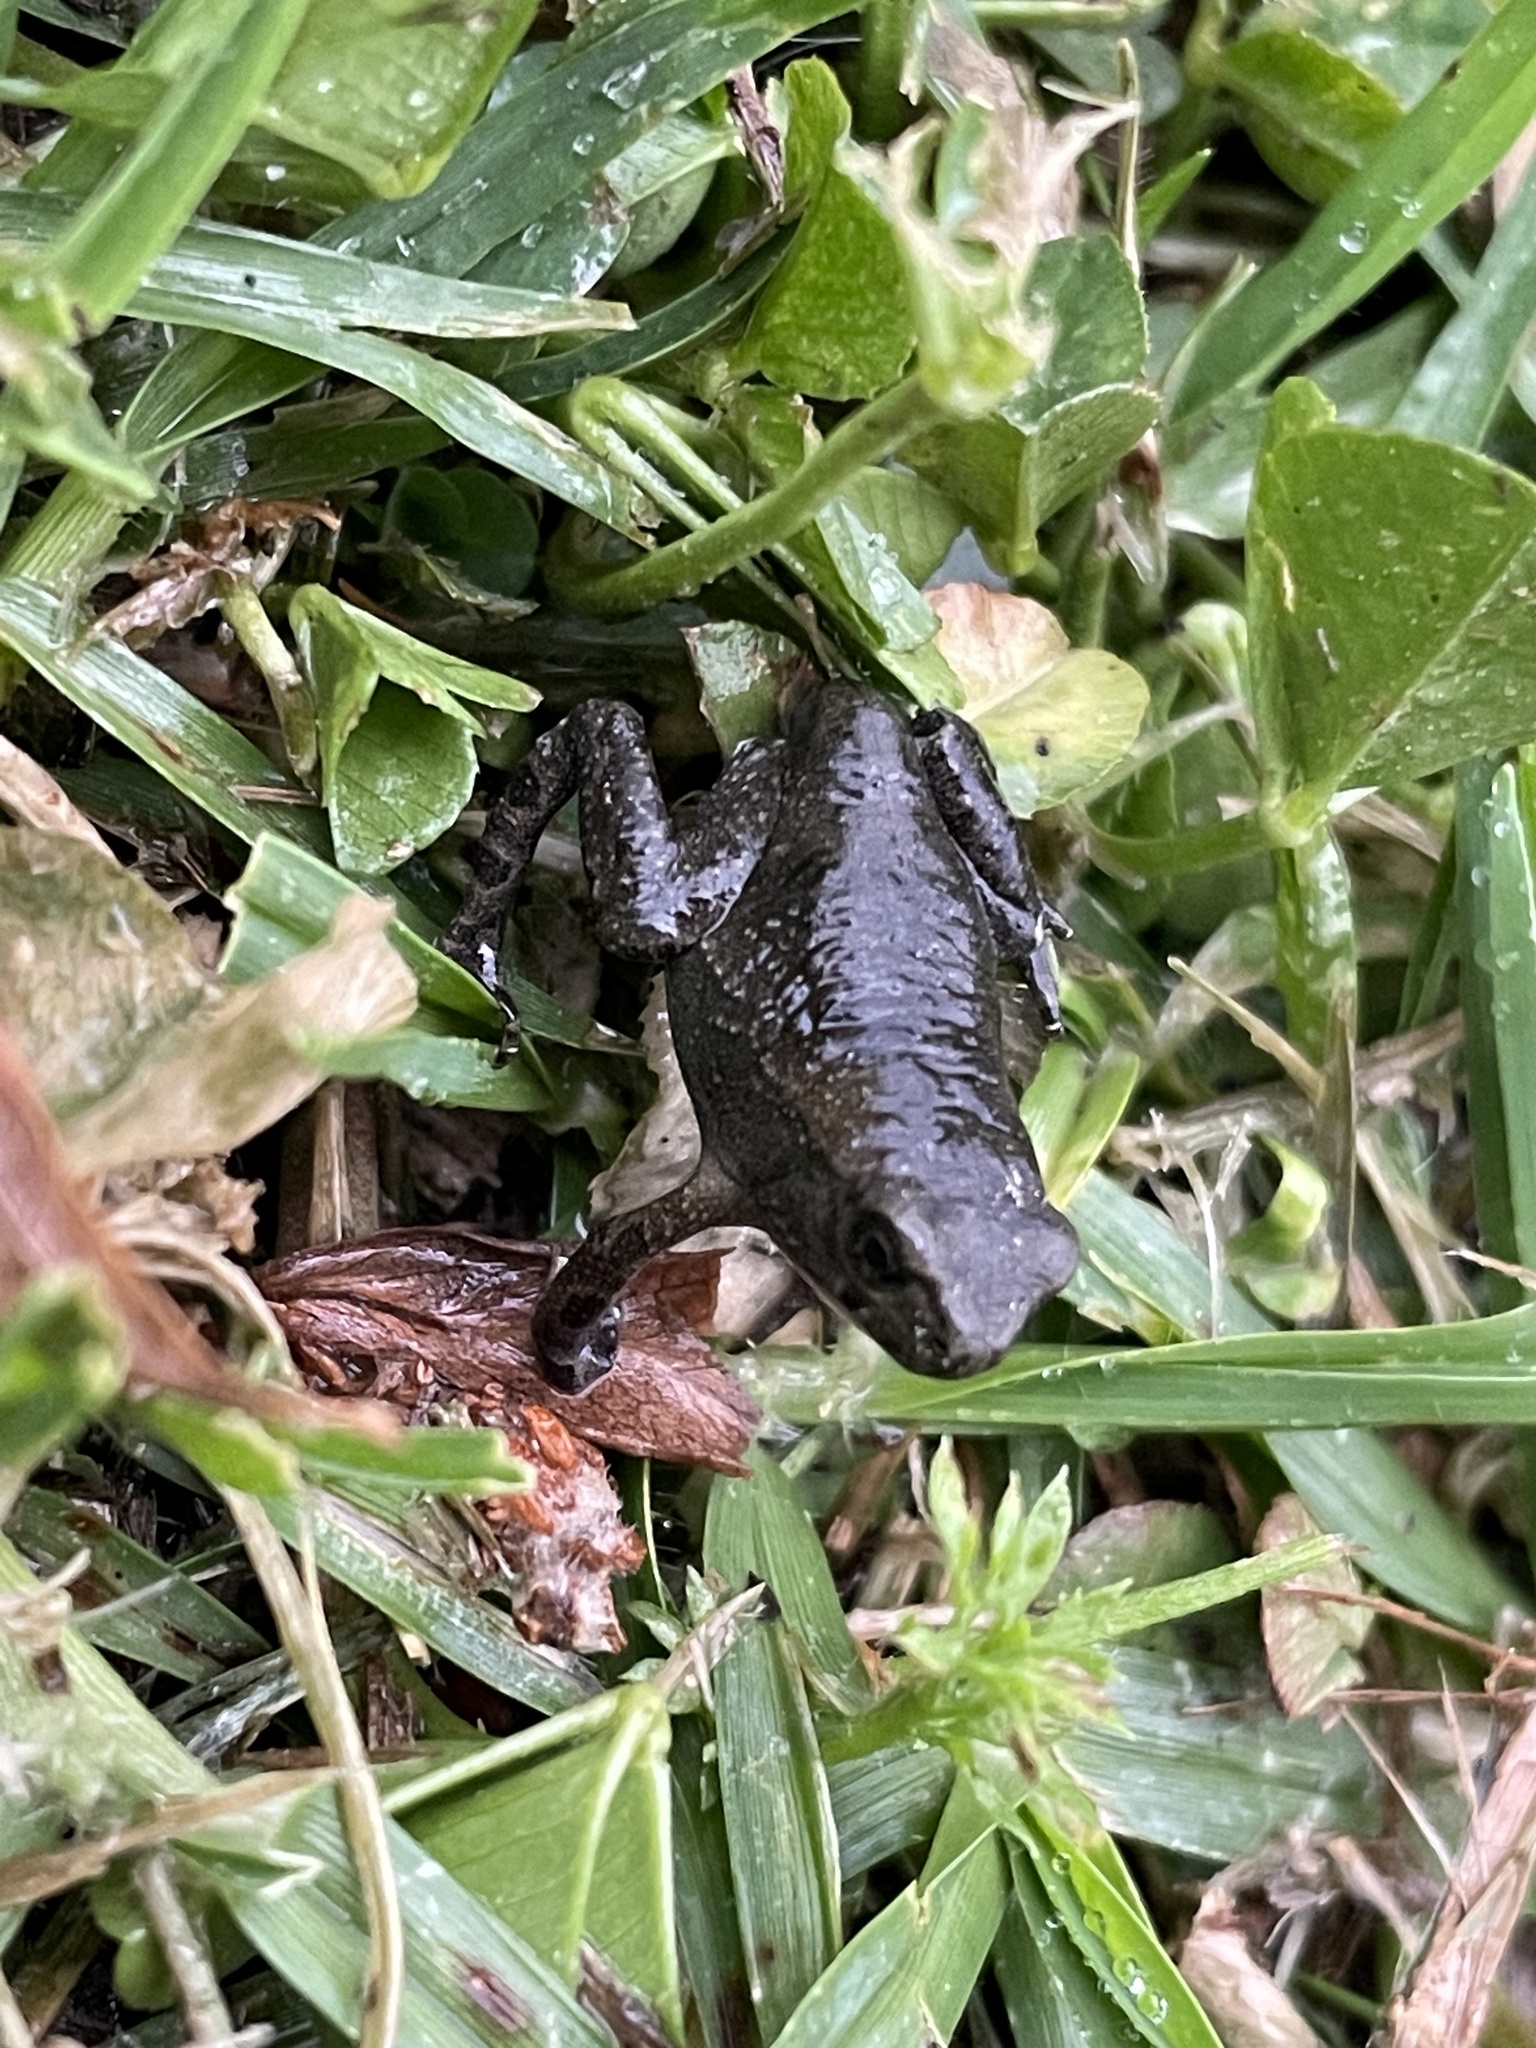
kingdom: Animalia
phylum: Chordata
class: Amphibia
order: Anura
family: Bufonidae
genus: Bufo
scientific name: Bufo bankorensis
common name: Bankor toad
